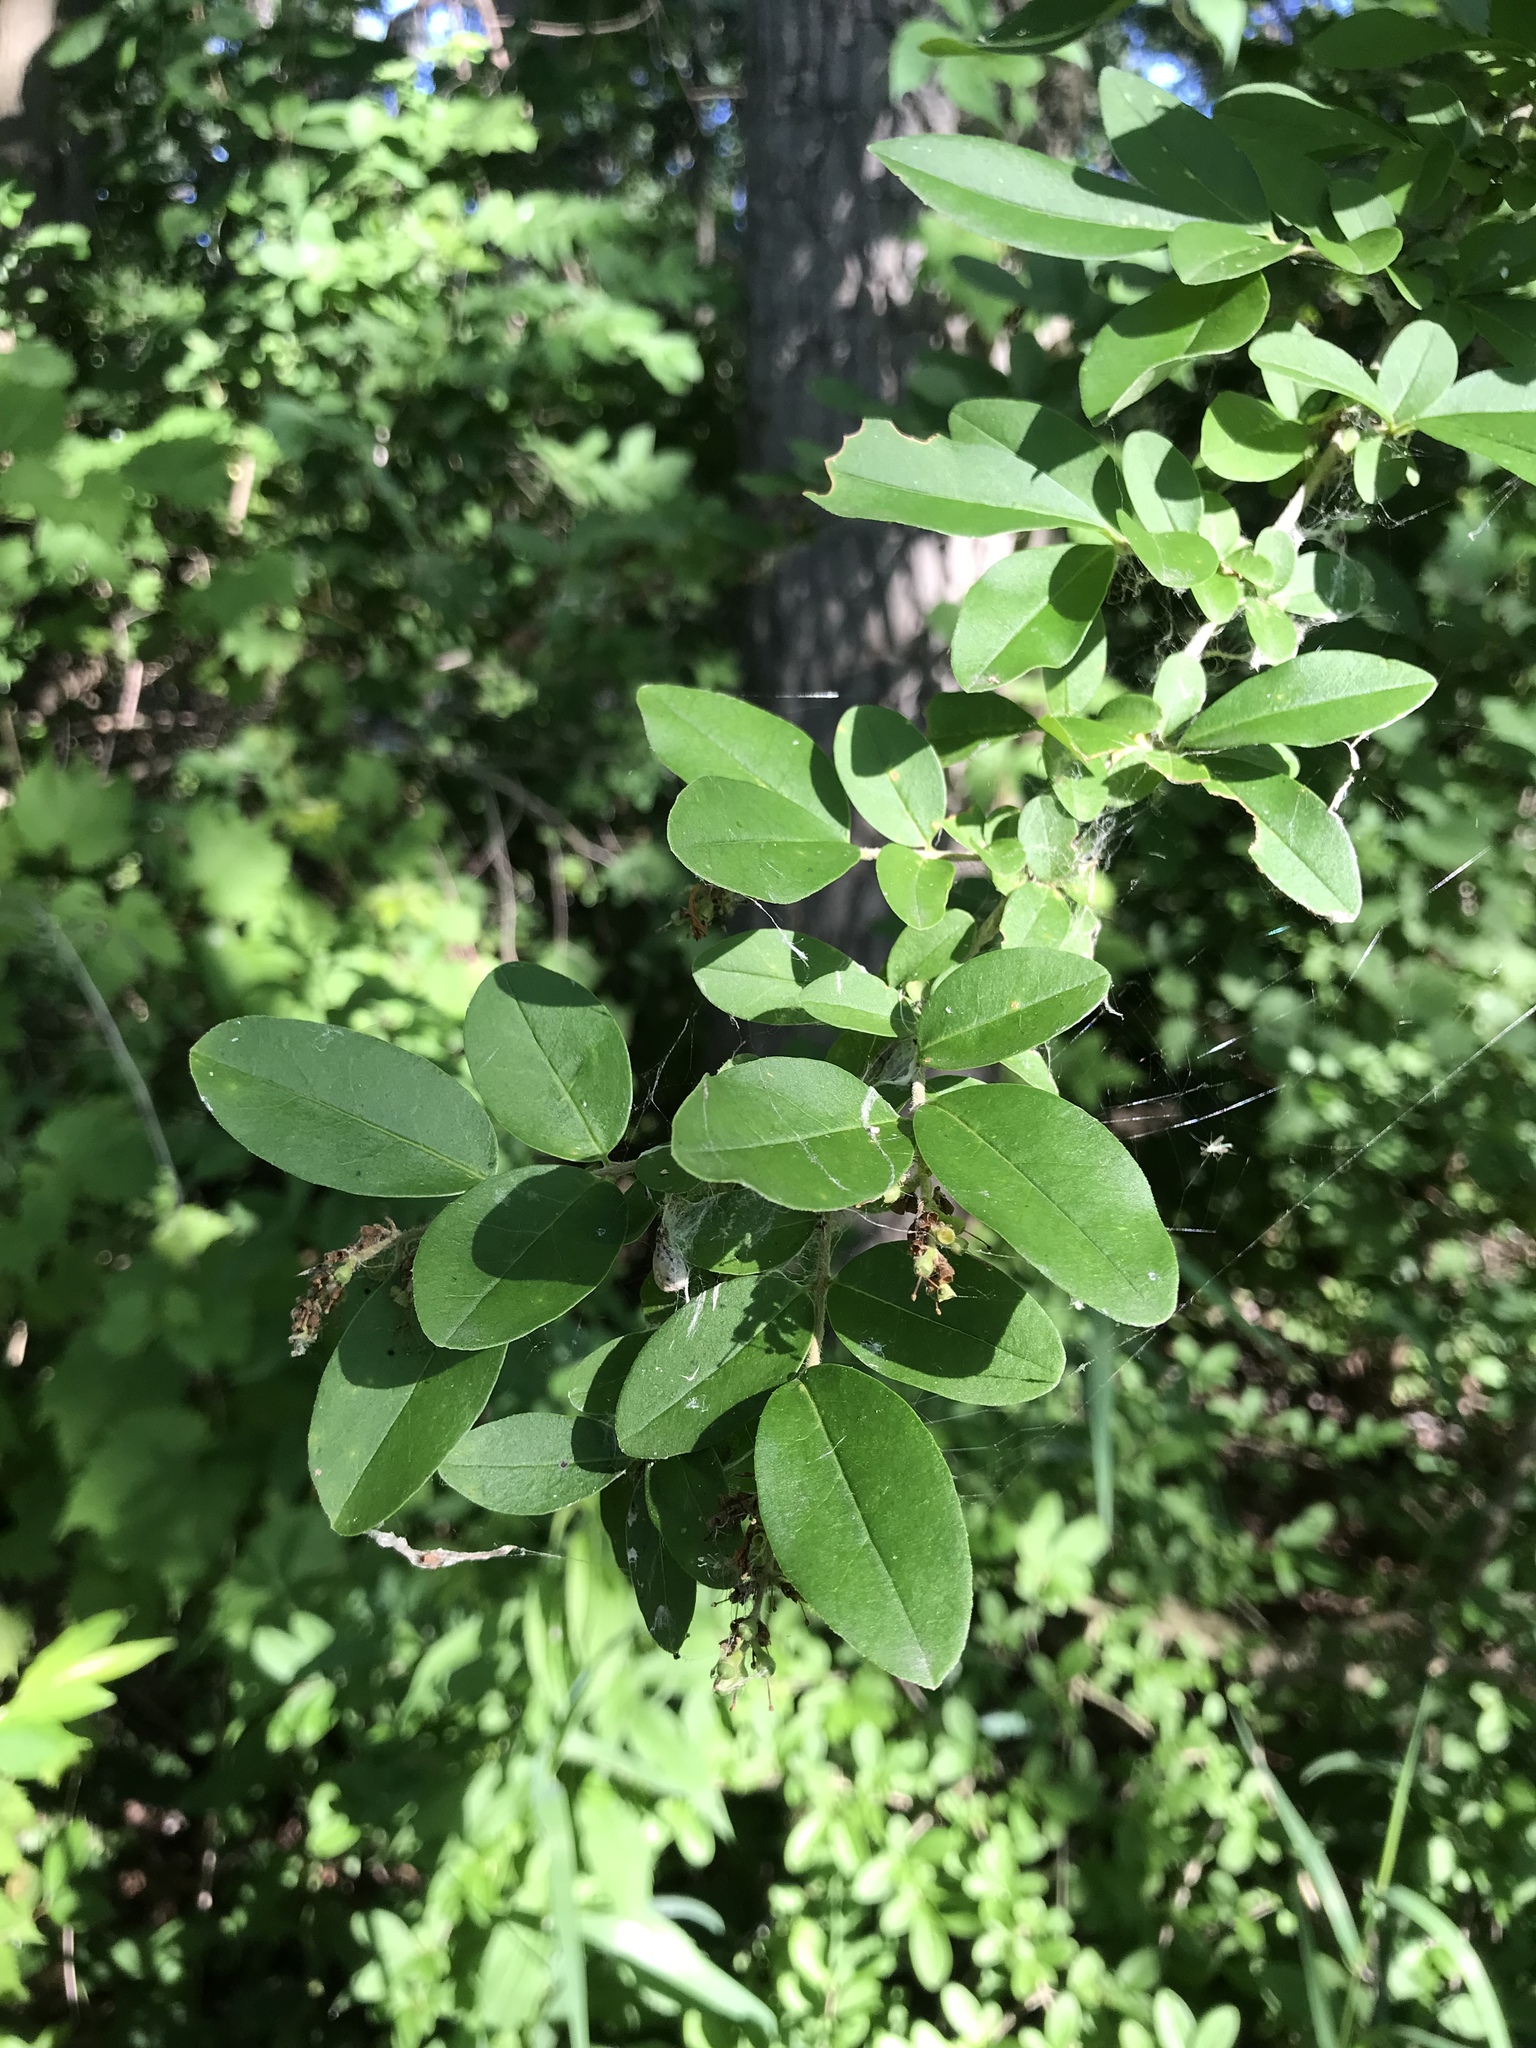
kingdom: Plantae
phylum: Tracheophyta
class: Magnoliopsida
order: Lamiales
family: Oleaceae
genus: Ligustrum
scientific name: Ligustrum obtusifolium
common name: Border privet
